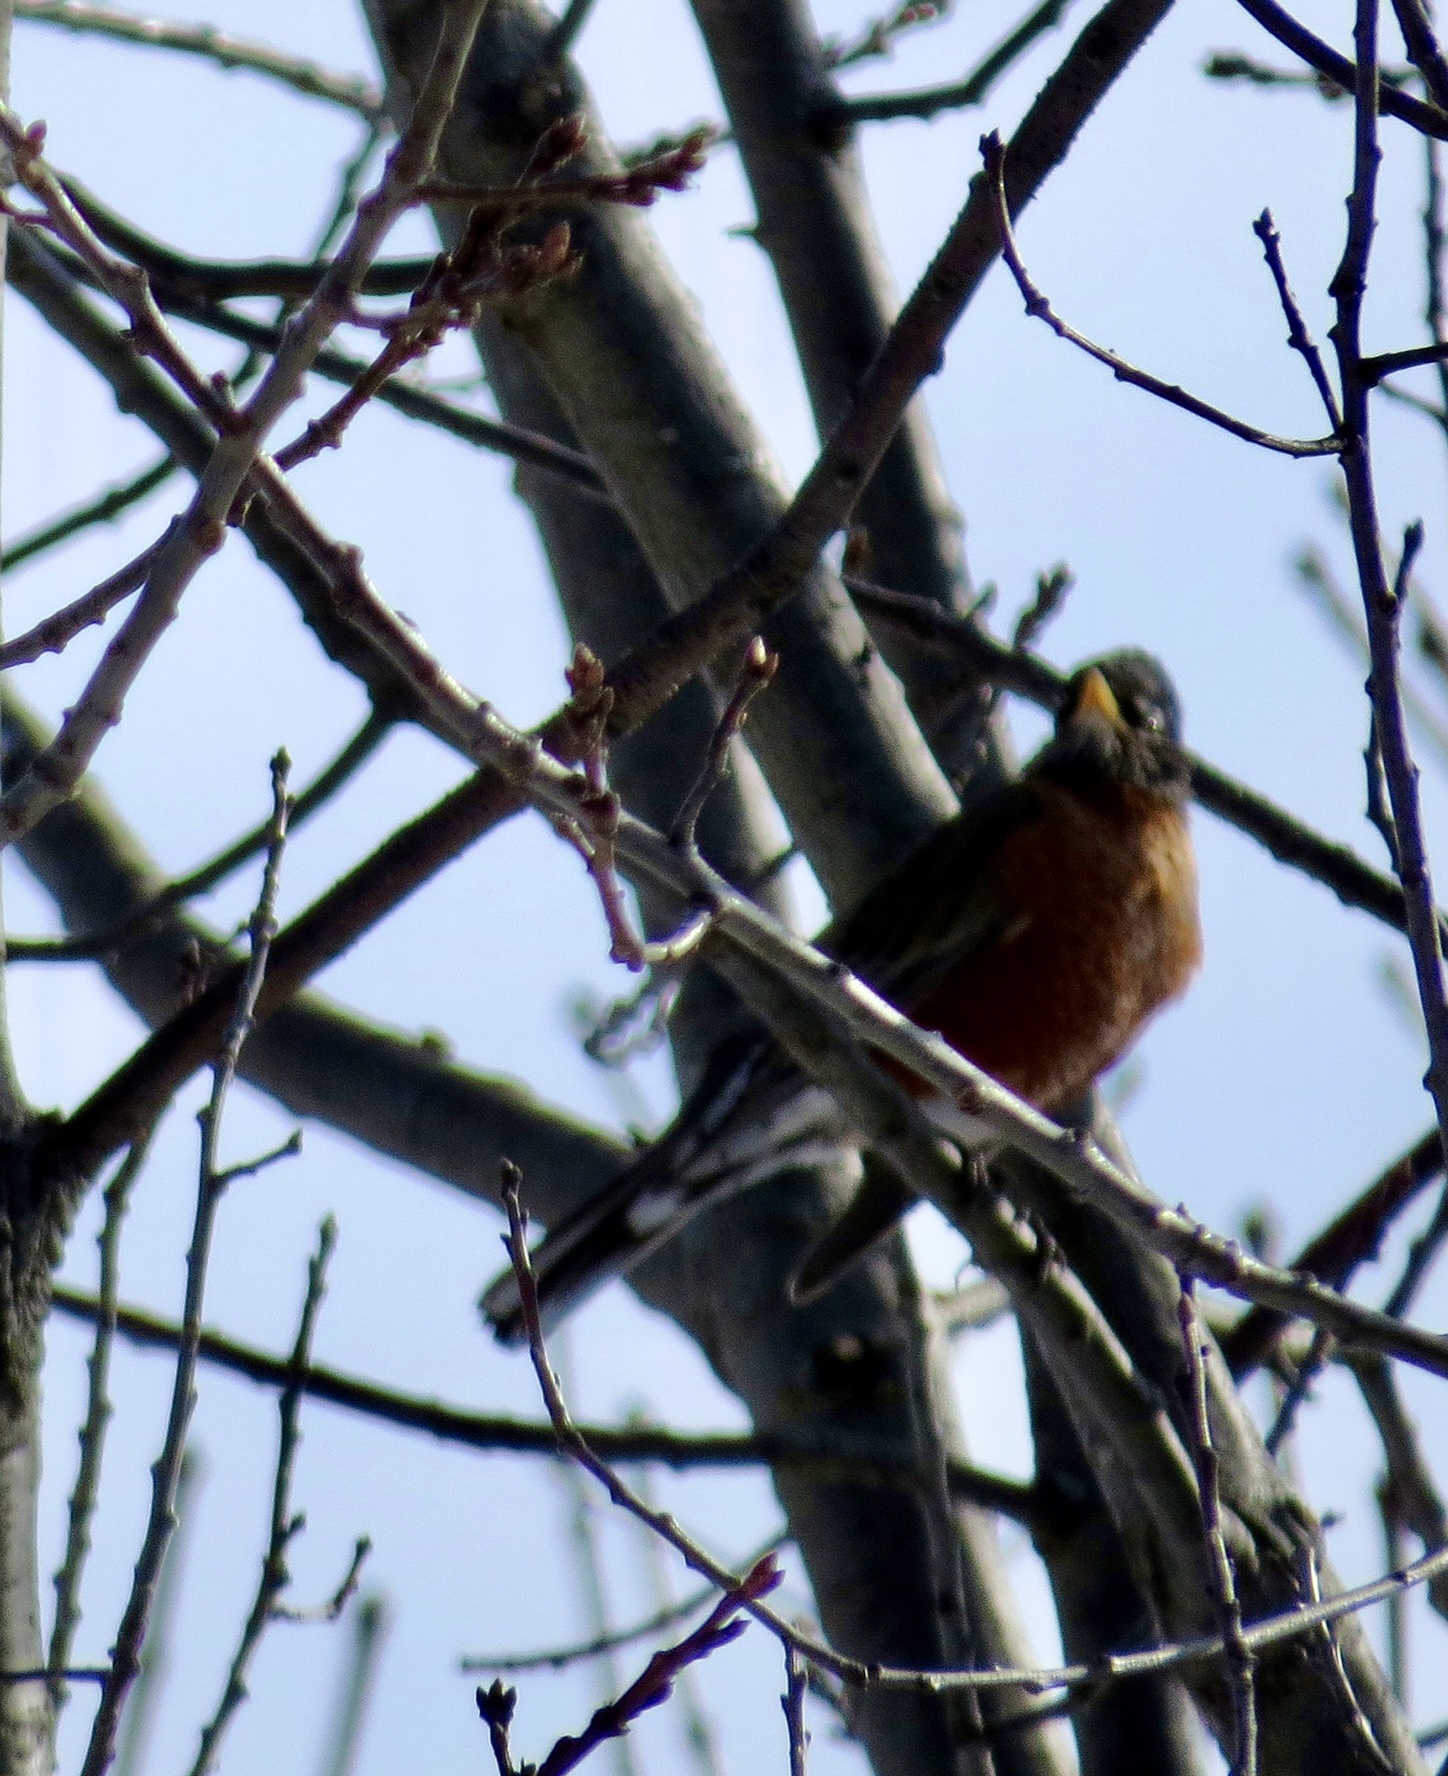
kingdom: Animalia
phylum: Chordata
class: Aves
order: Passeriformes
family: Turdidae
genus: Turdus
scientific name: Turdus migratorius
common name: American robin
